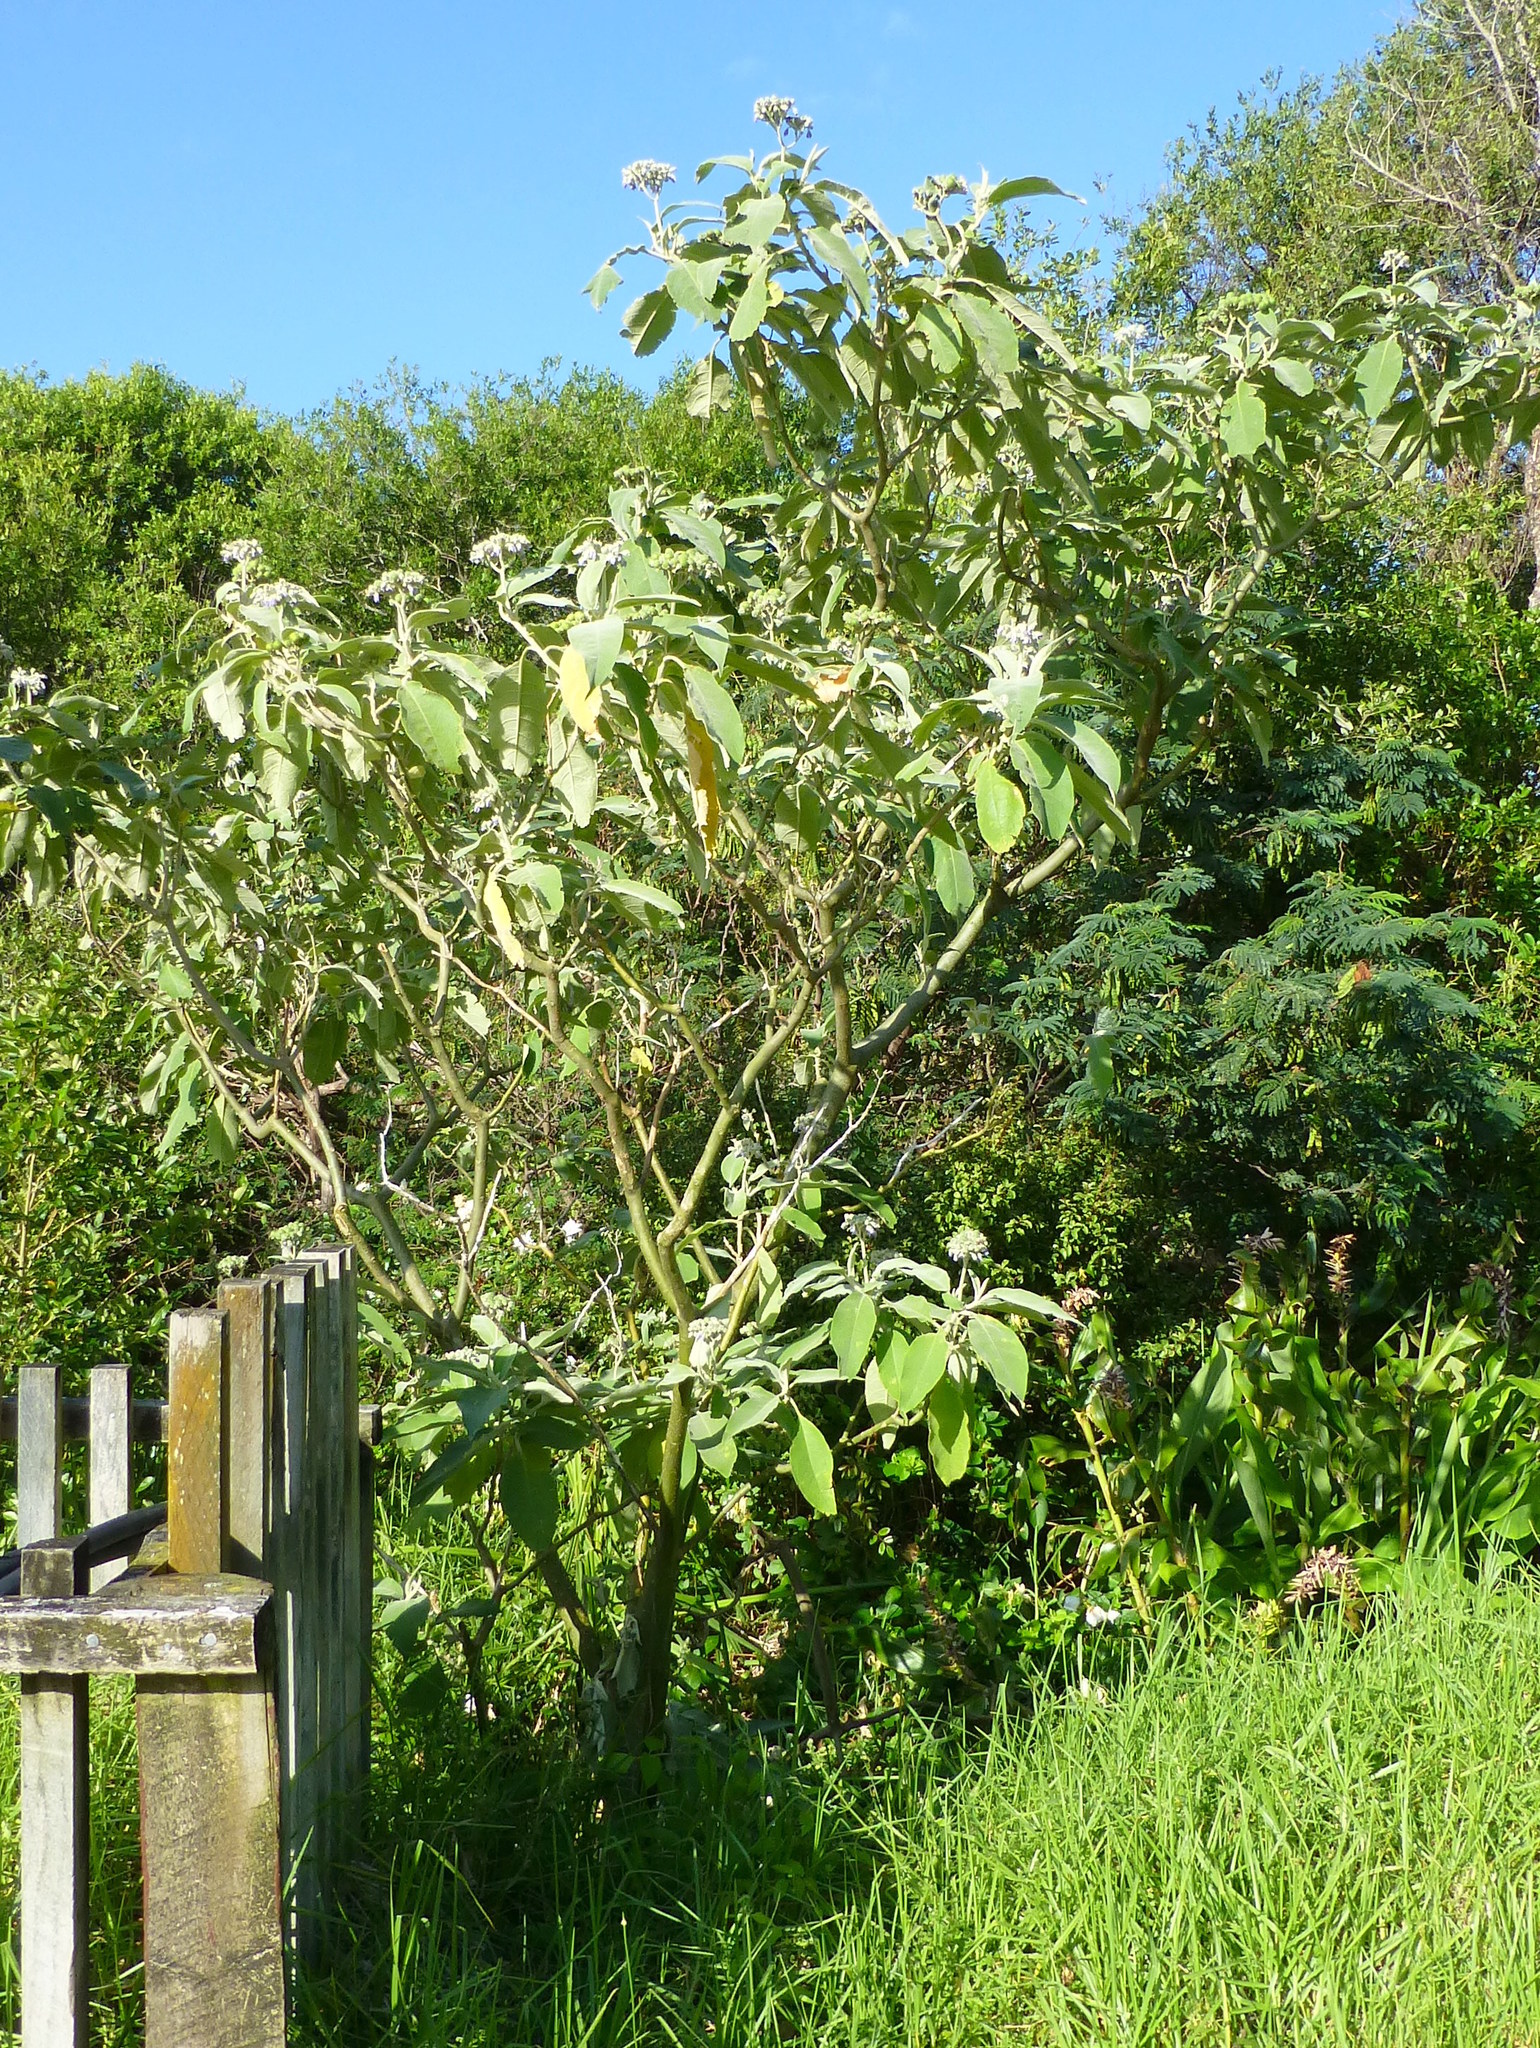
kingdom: Plantae
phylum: Tracheophyta
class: Magnoliopsida
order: Solanales
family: Solanaceae
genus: Solanum
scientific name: Solanum mauritianum
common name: Earleaf nightshade
